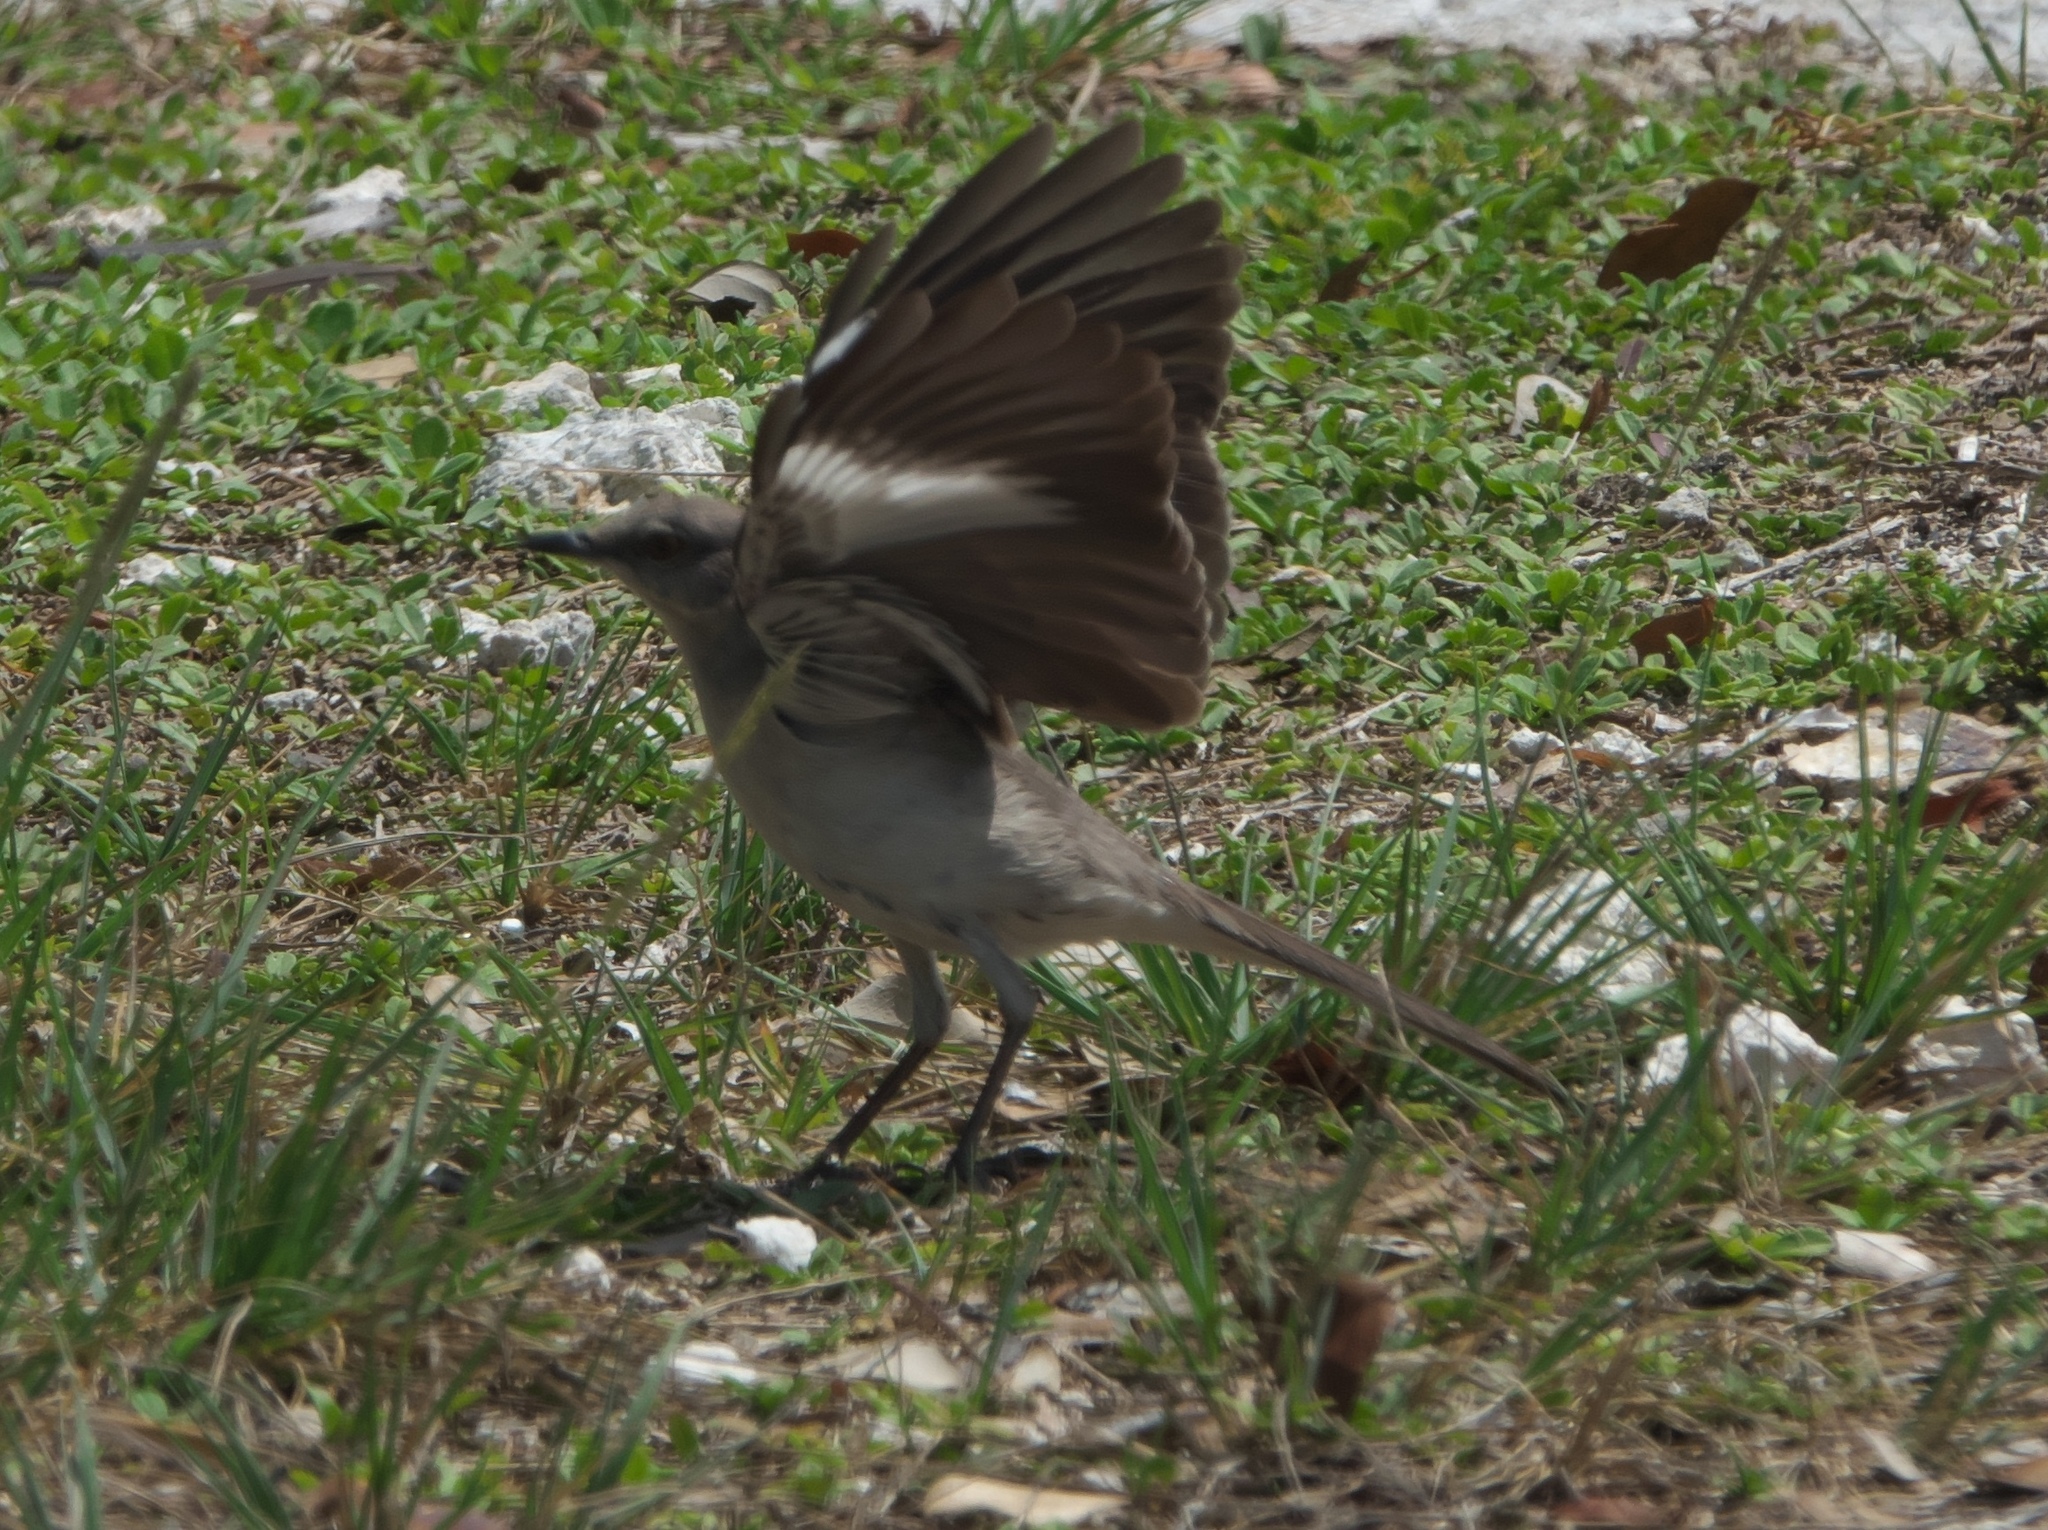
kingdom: Animalia
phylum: Chordata
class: Aves
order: Passeriformes
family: Mimidae
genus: Mimus
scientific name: Mimus polyglottos
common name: Northern mockingbird
